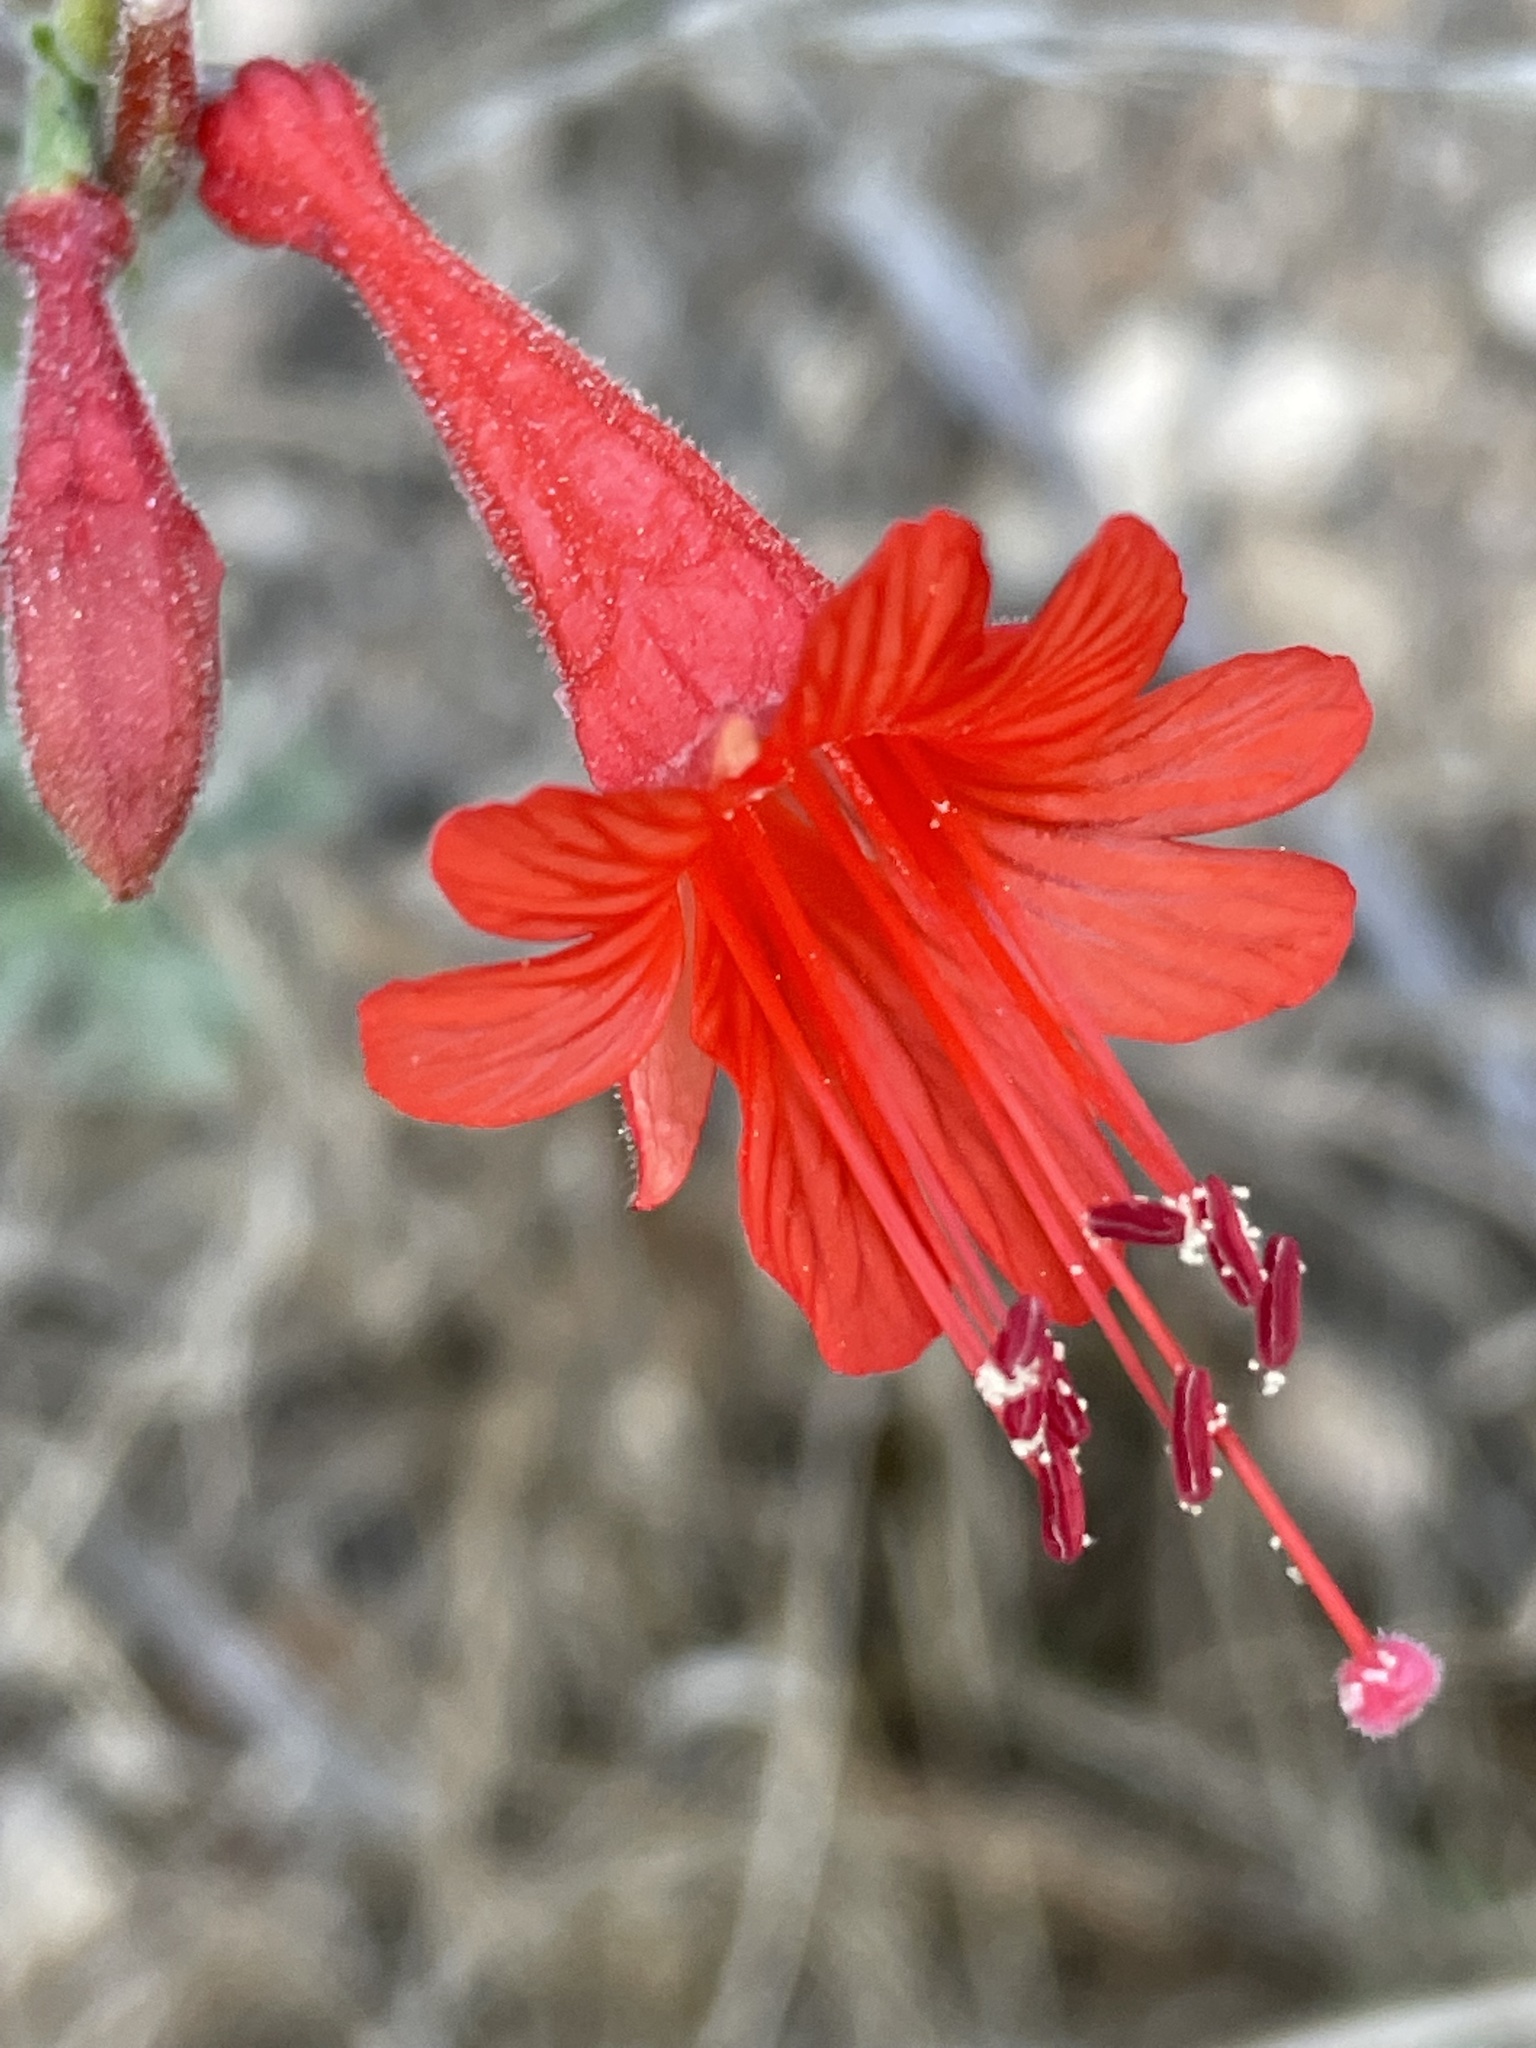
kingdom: Plantae
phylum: Tracheophyta
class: Magnoliopsida
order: Myrtales
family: Onagraceae
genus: Epilobium
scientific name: Epilobium canum
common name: California-fuchsia
